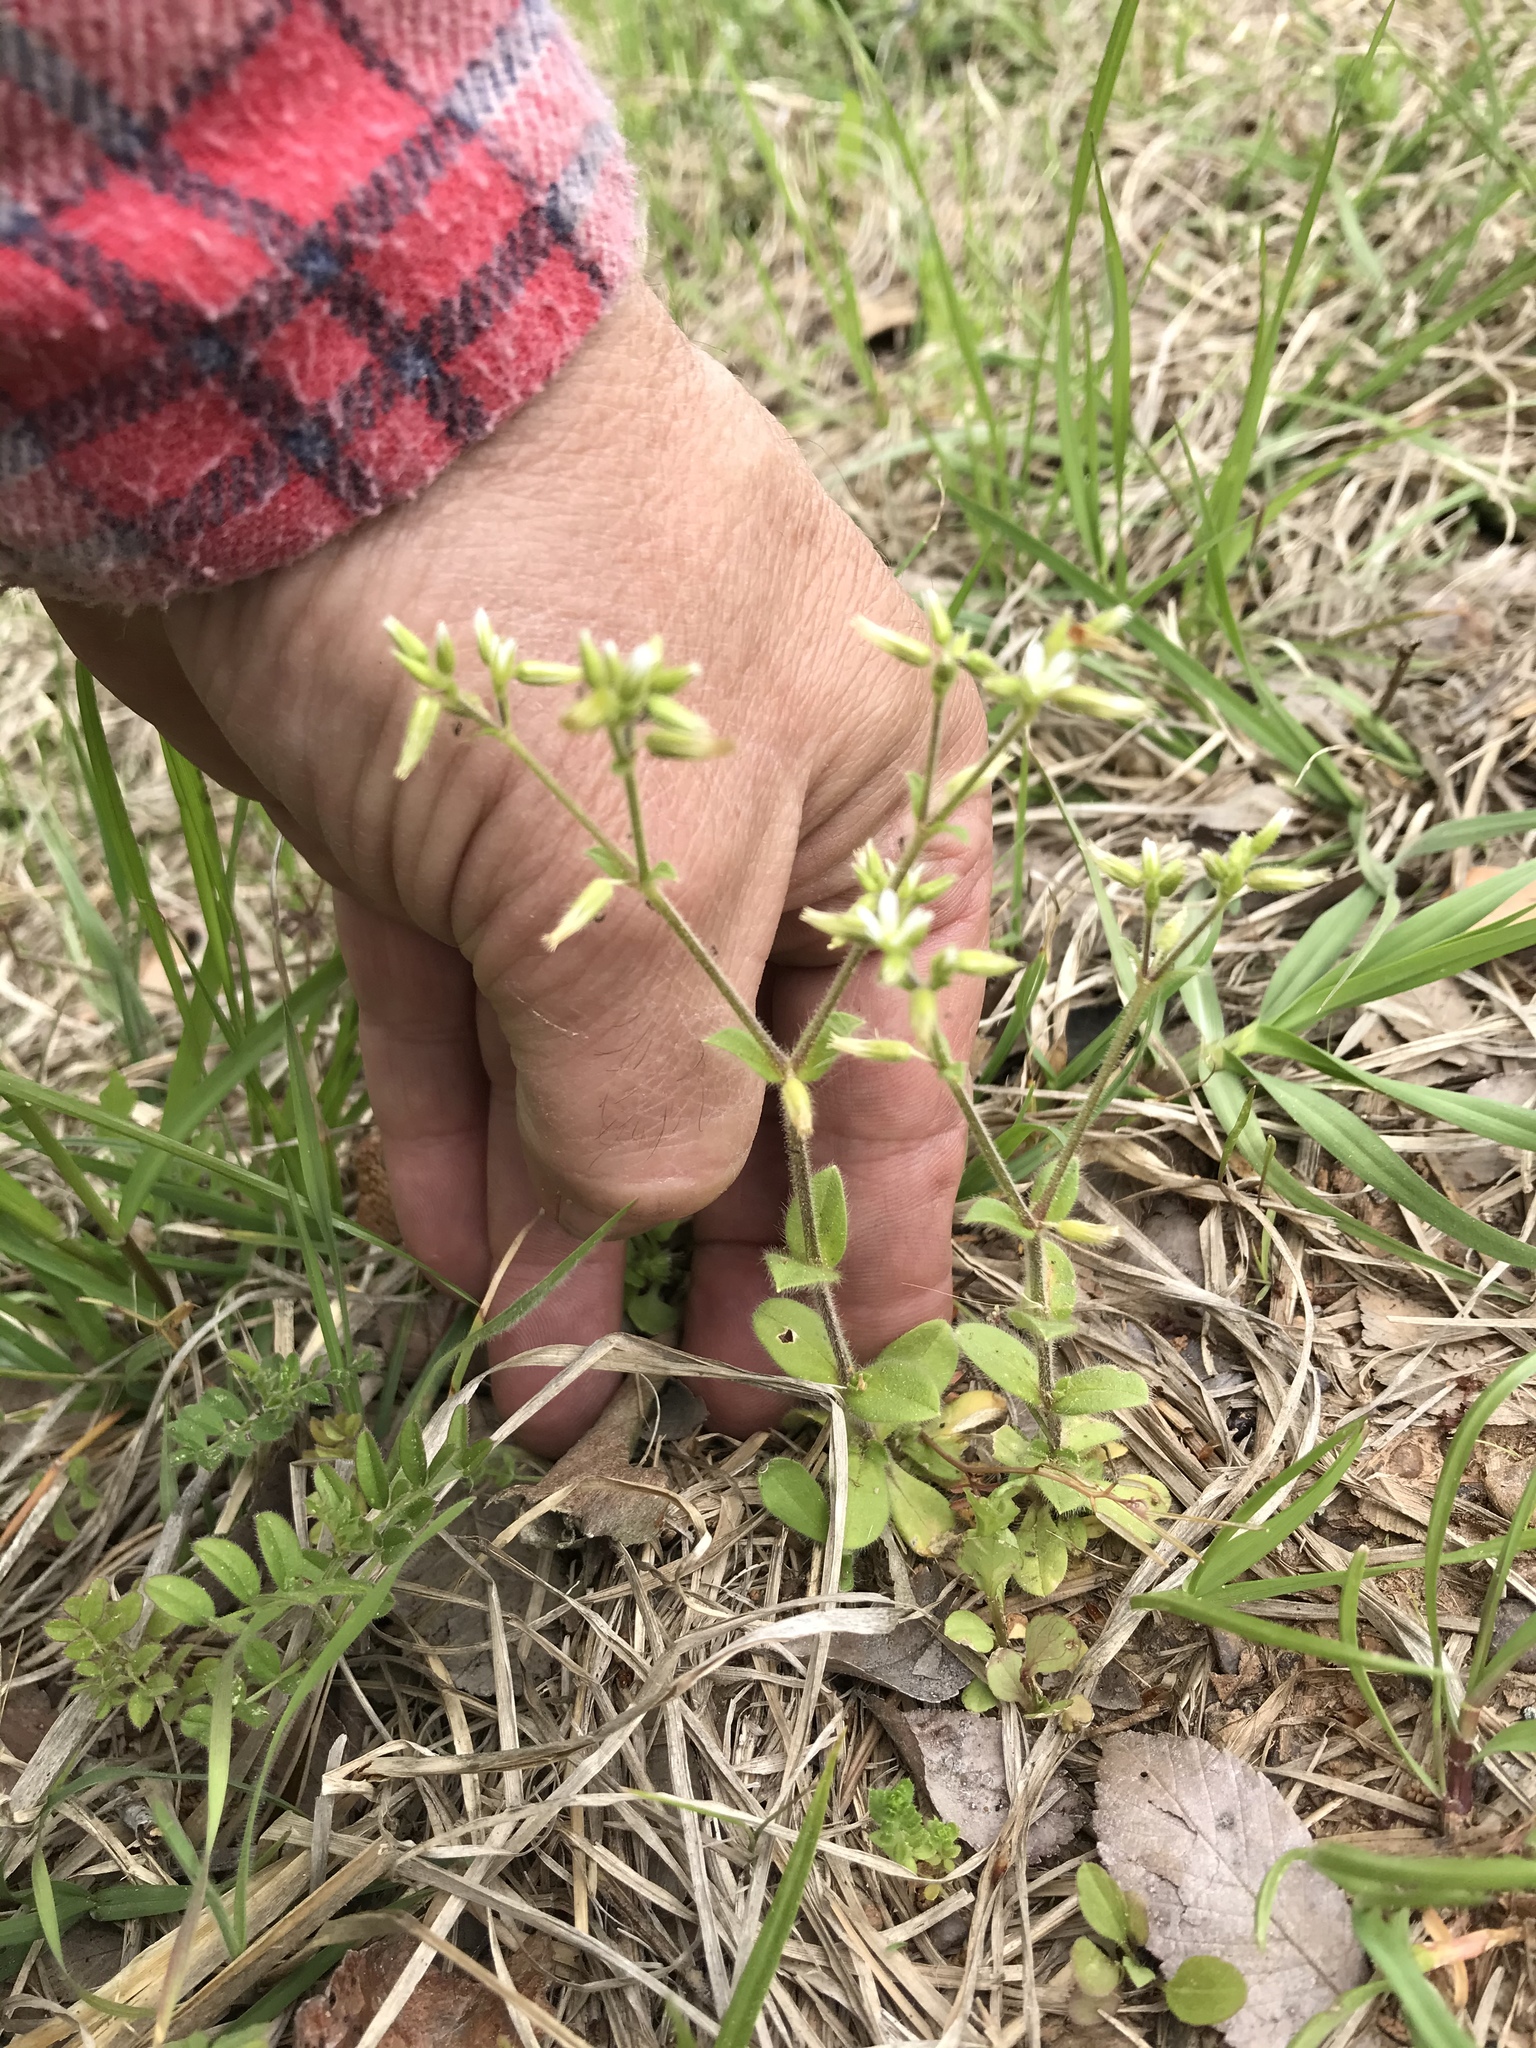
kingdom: Plantae
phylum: Tracheophyta
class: Magnoliopsida
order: Caryophyllales
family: Caryophyllaceae
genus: Cerastium
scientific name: Cerastium fontanum
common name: Common mouse-ear
